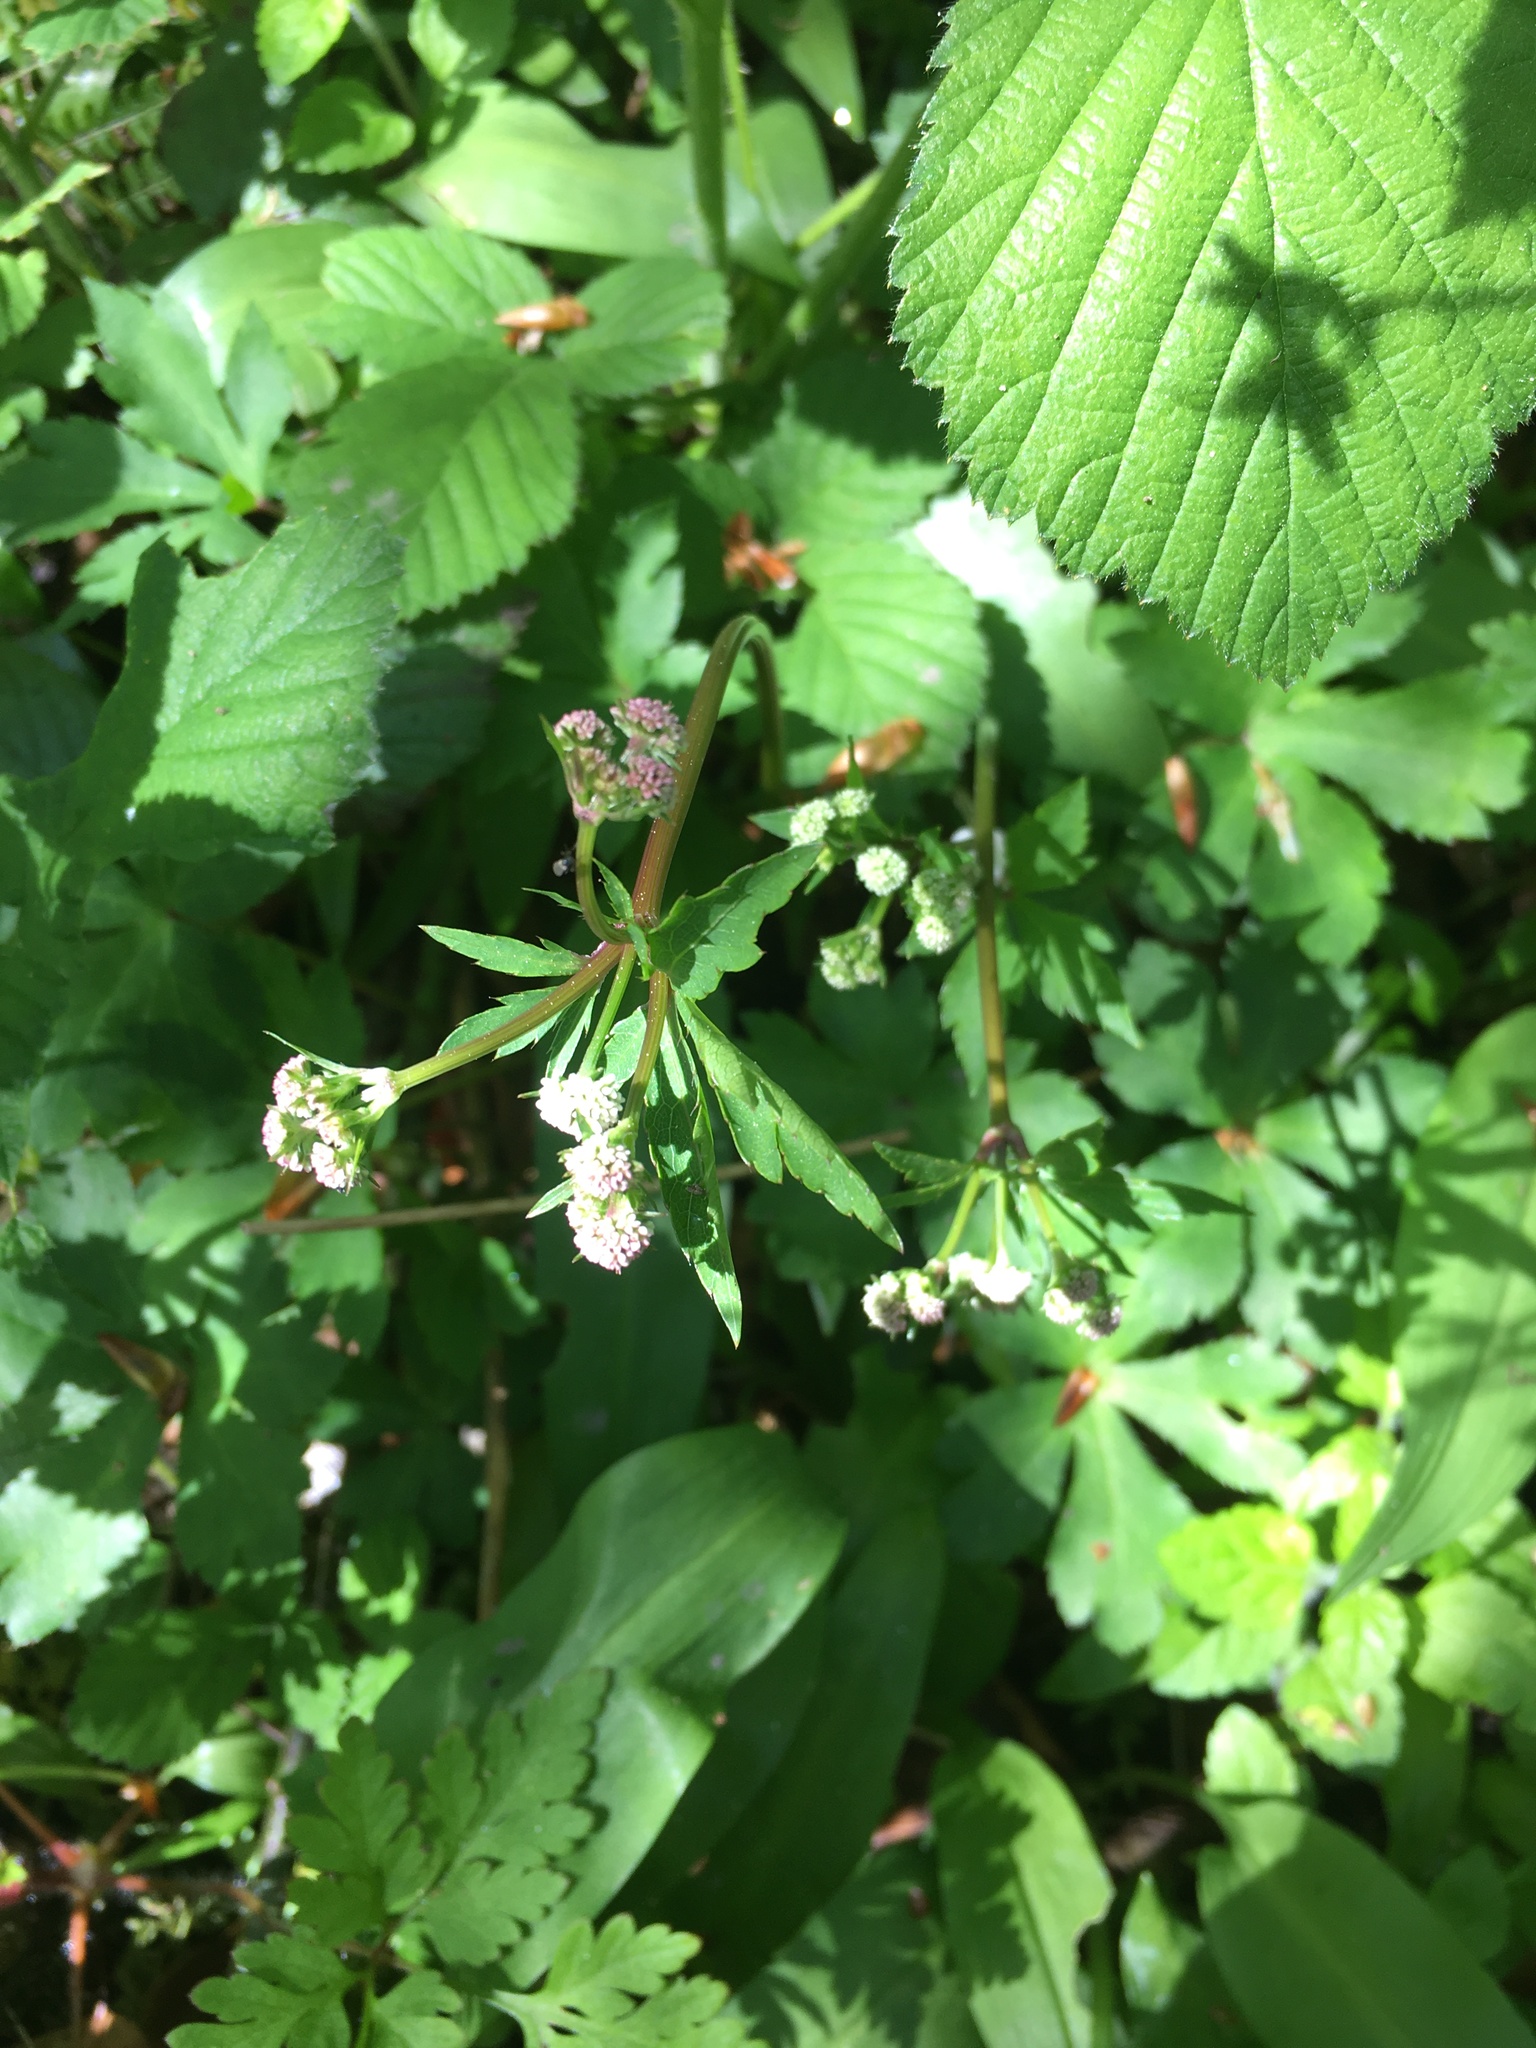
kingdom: Plantae
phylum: Tracheophyta
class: Magnoliopsida
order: Apiales
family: Apiaceae
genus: Sanicula
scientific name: Sanicula europaea
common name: Sanicle
